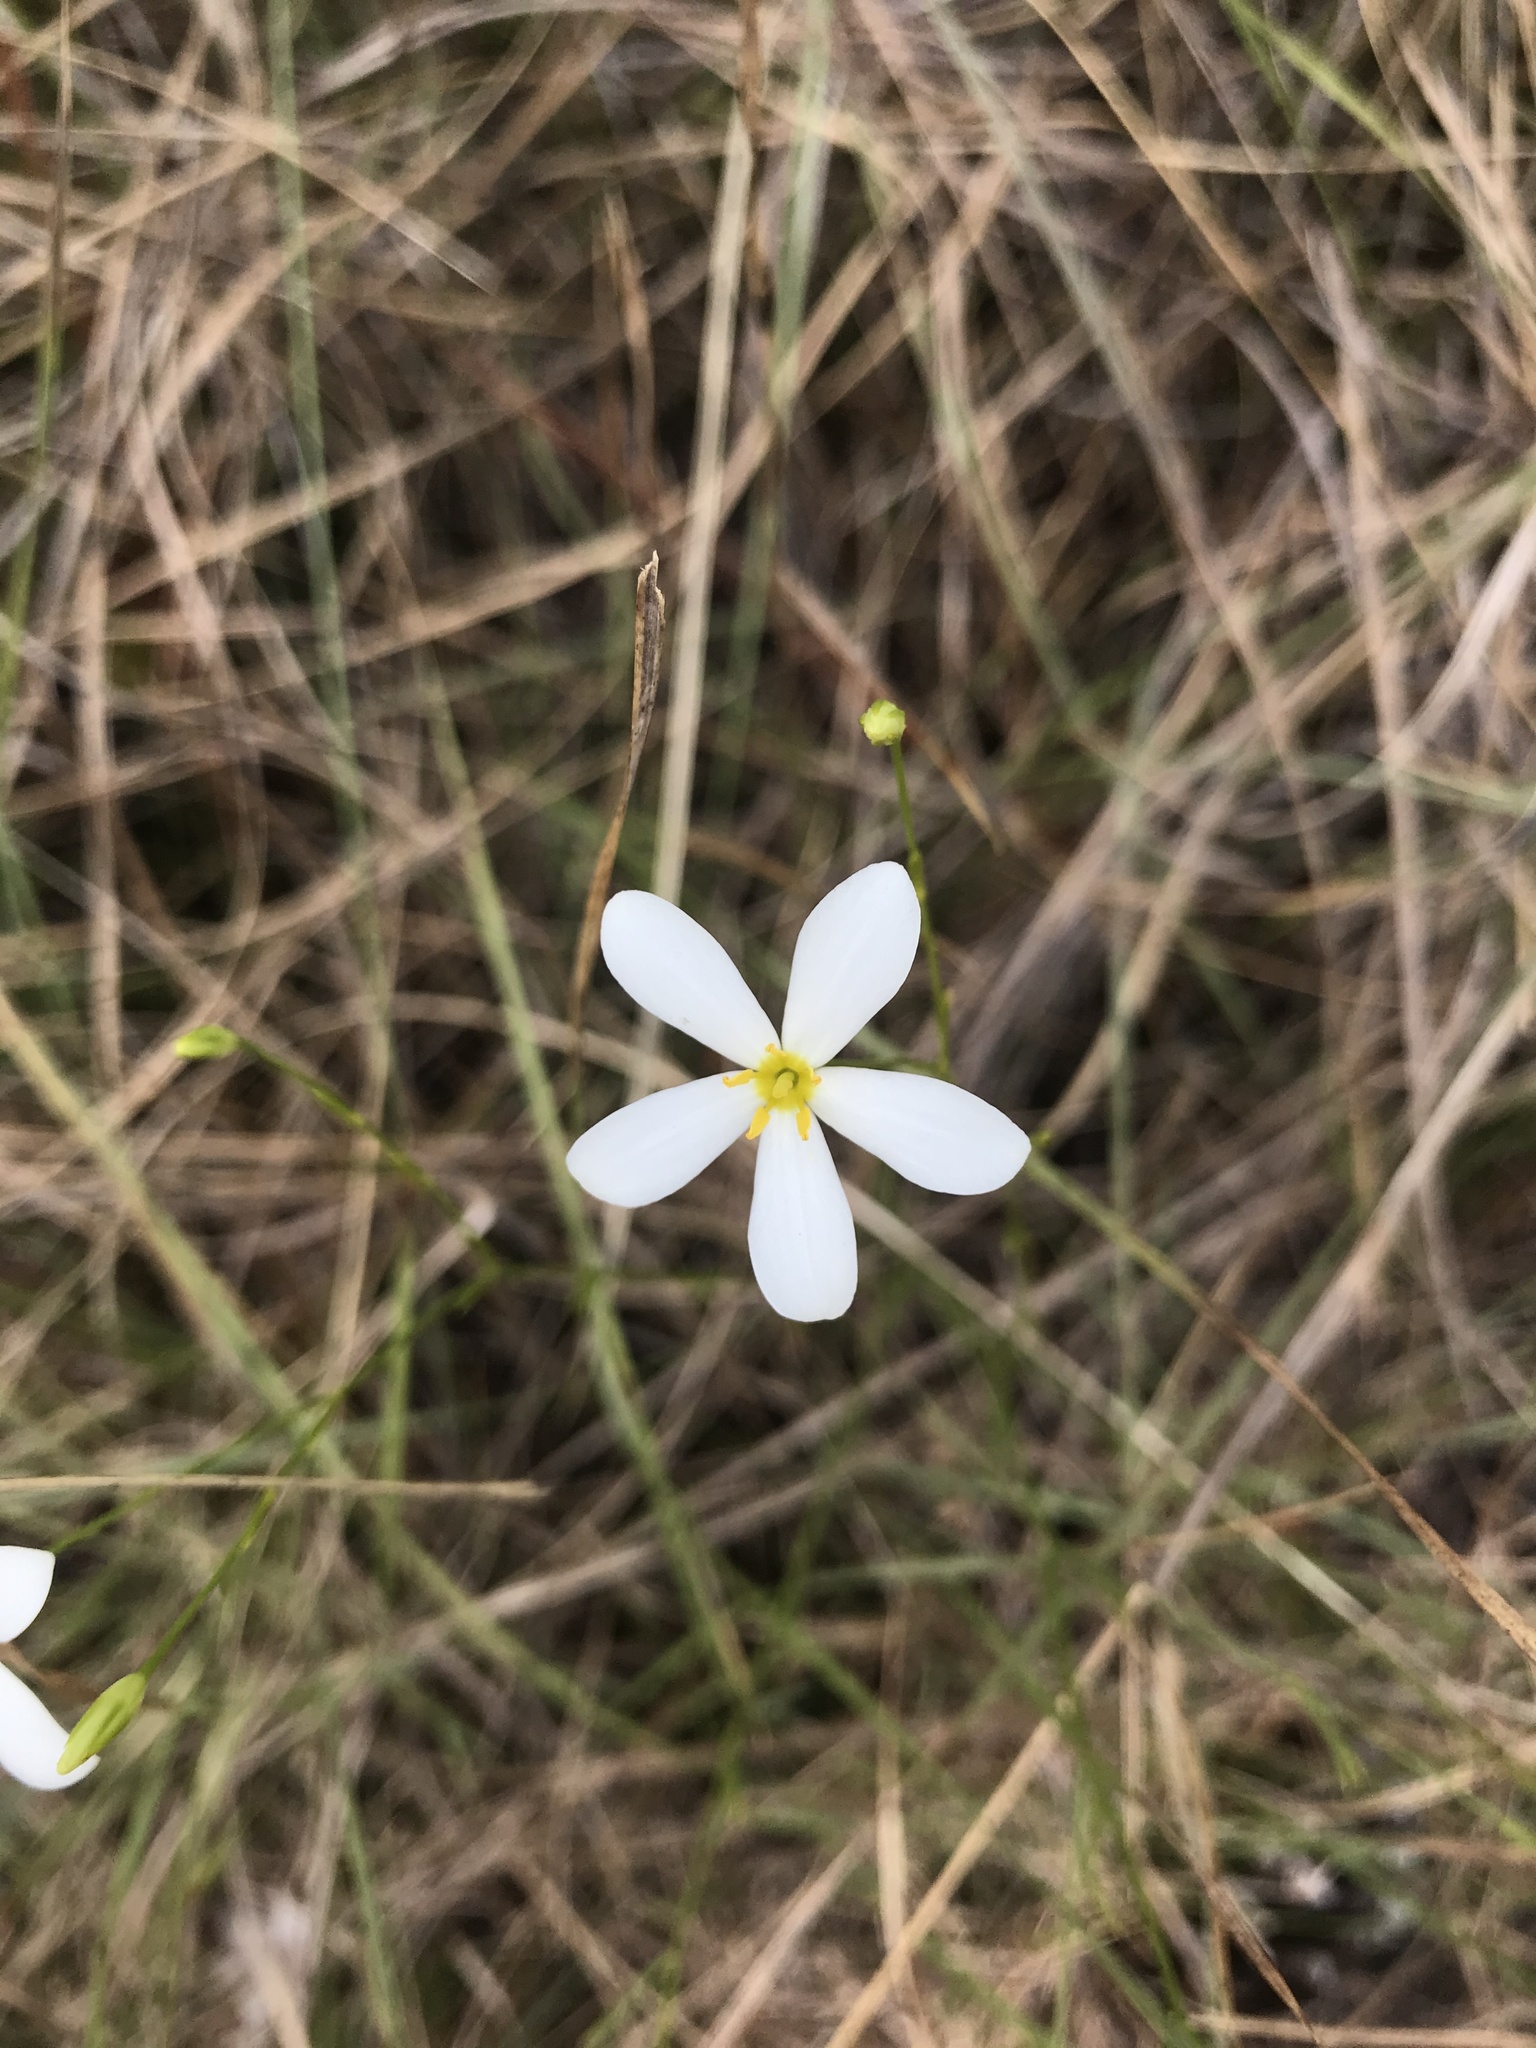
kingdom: Plantae
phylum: Tracheophyta
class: Magnoliopsida
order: Gentianales
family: Gentianaceae
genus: Sabatia
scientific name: Sabatia brevifolia
